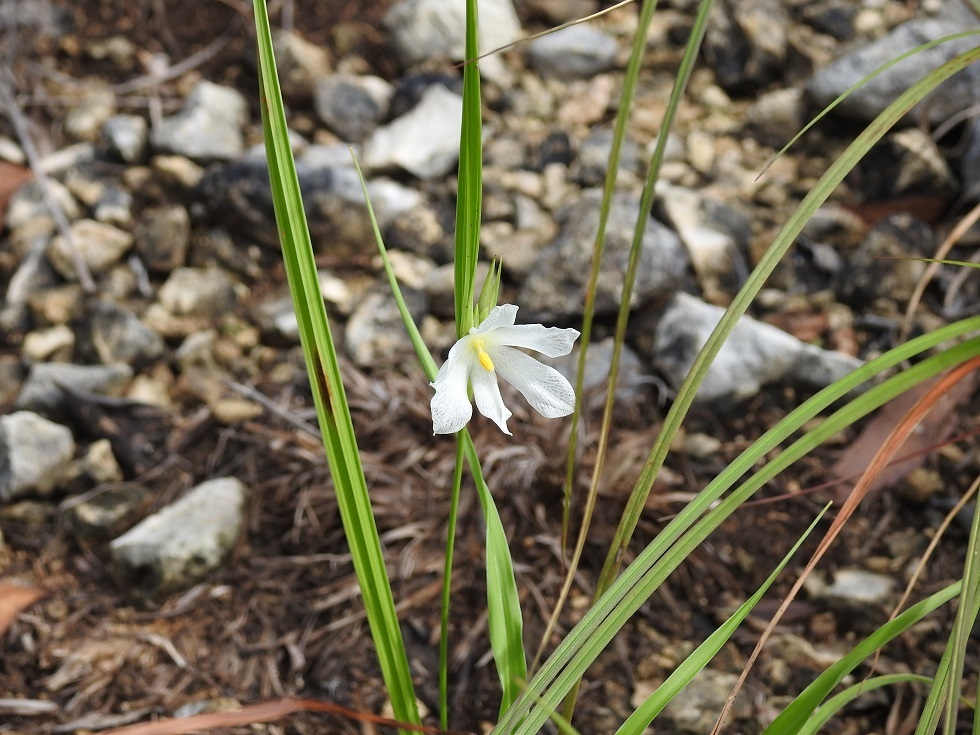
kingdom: Plantae
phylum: Tracheophyta
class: Liliopsida
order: Asparagales
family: Iridaceae
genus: Cipura
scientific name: Cipura campanulata
